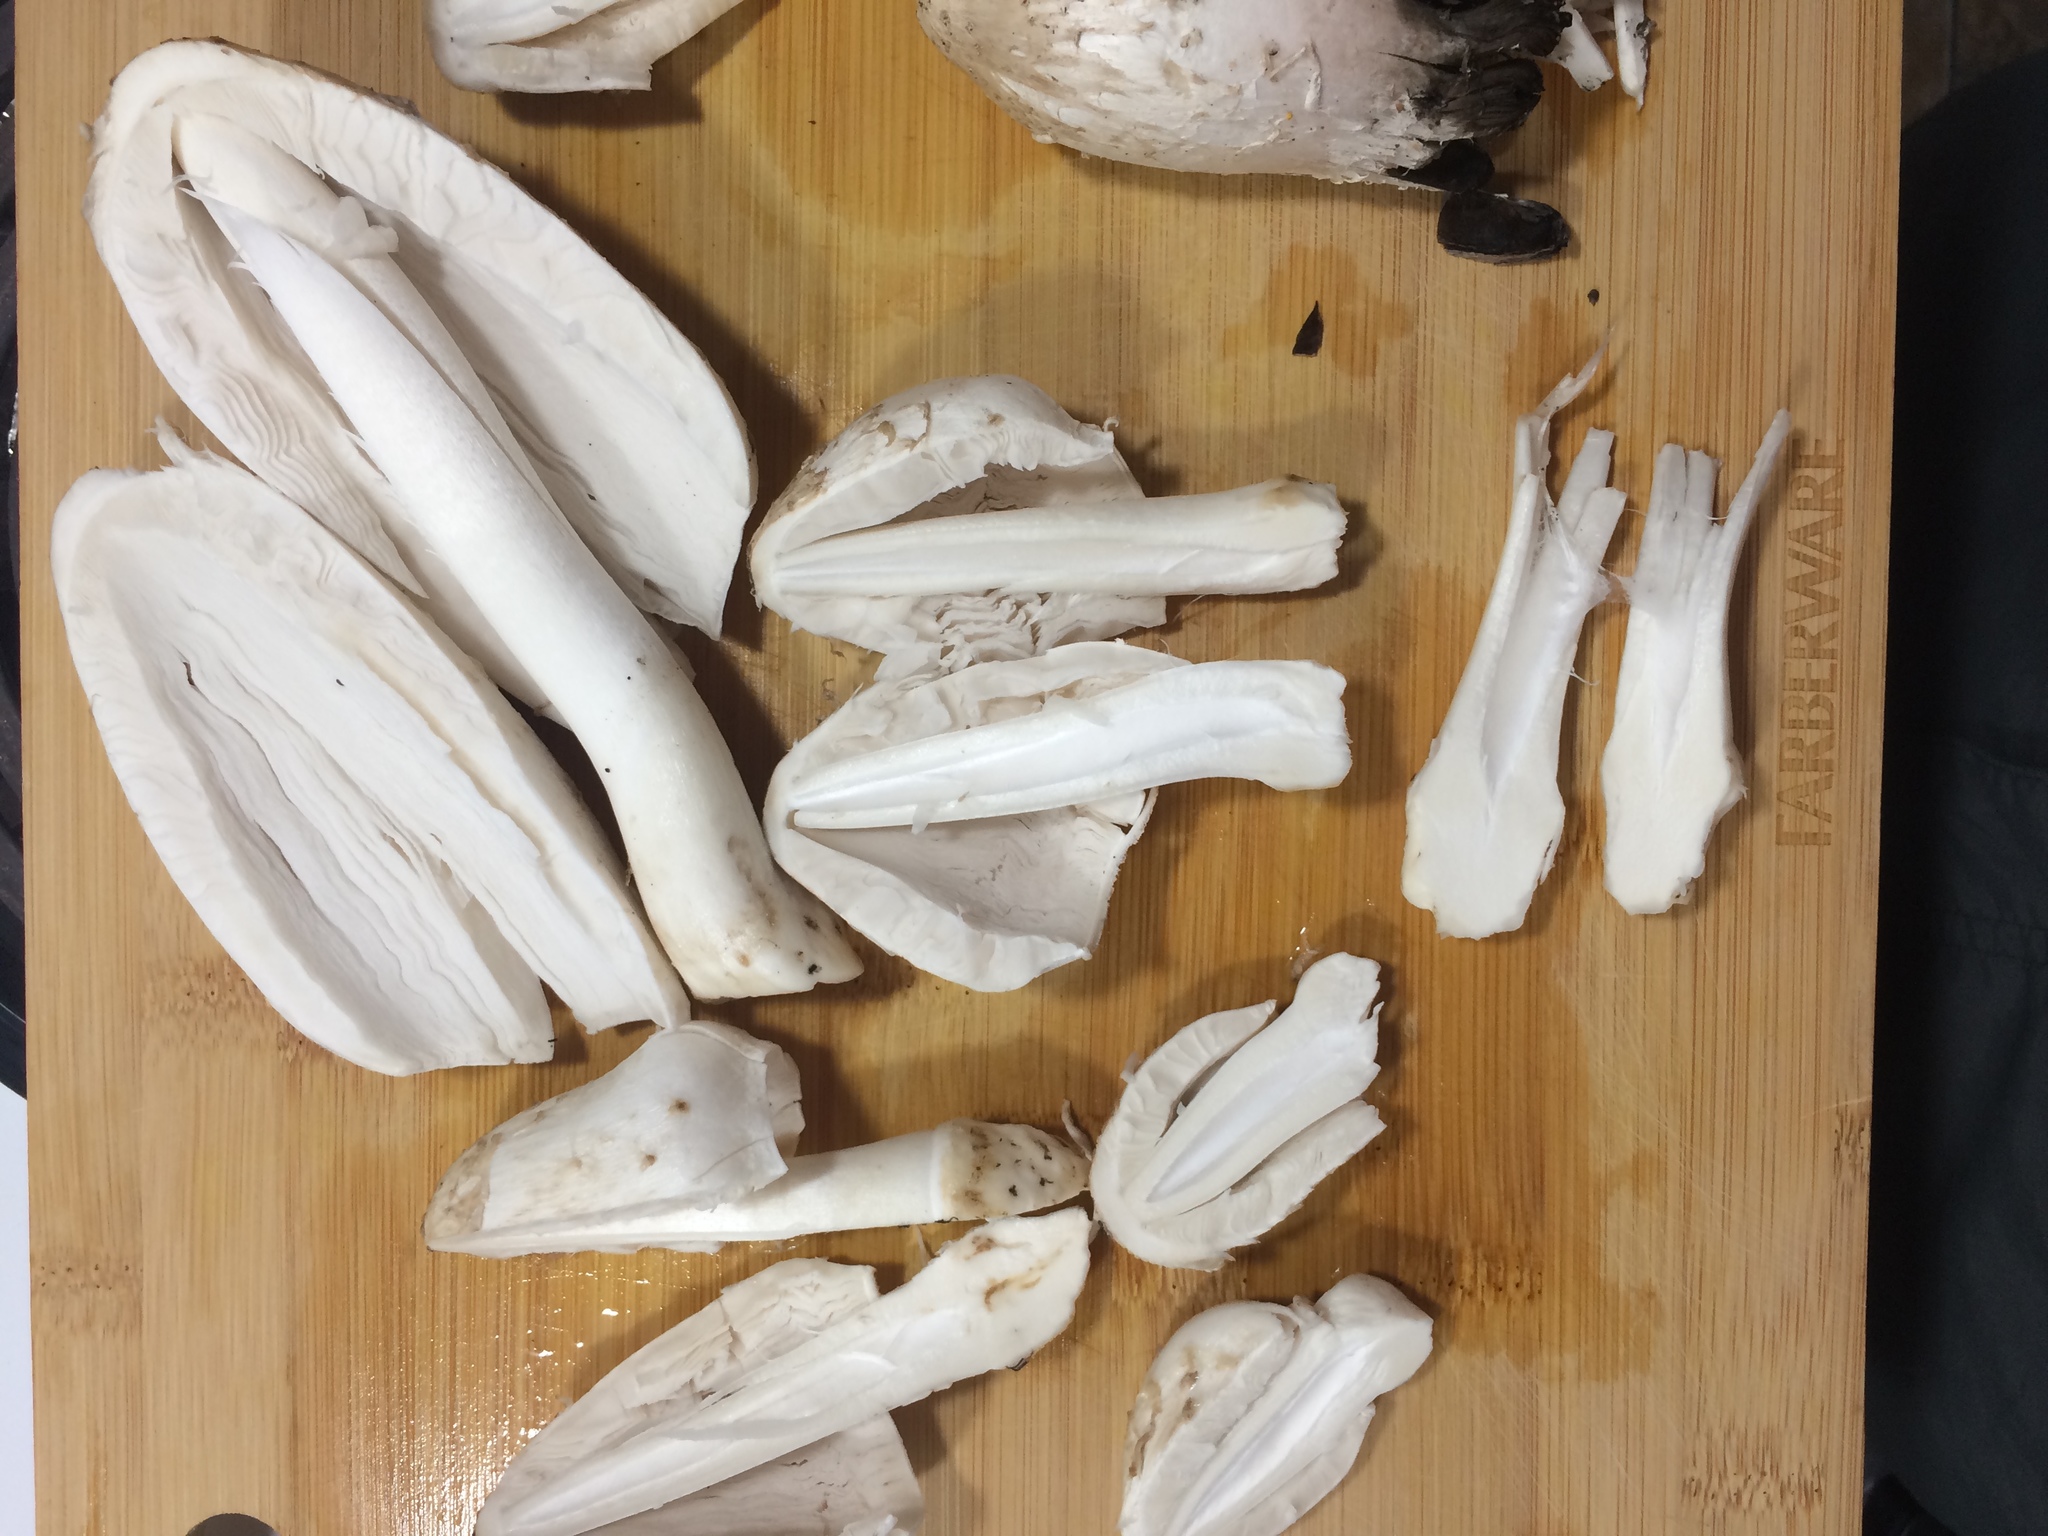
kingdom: Fungi
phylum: Basidiomycota
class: Agaricomycetes
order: Agaricales
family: Agaricaceae
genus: Coprinus
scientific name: Coprinus comatus
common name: Lawyer's wig
